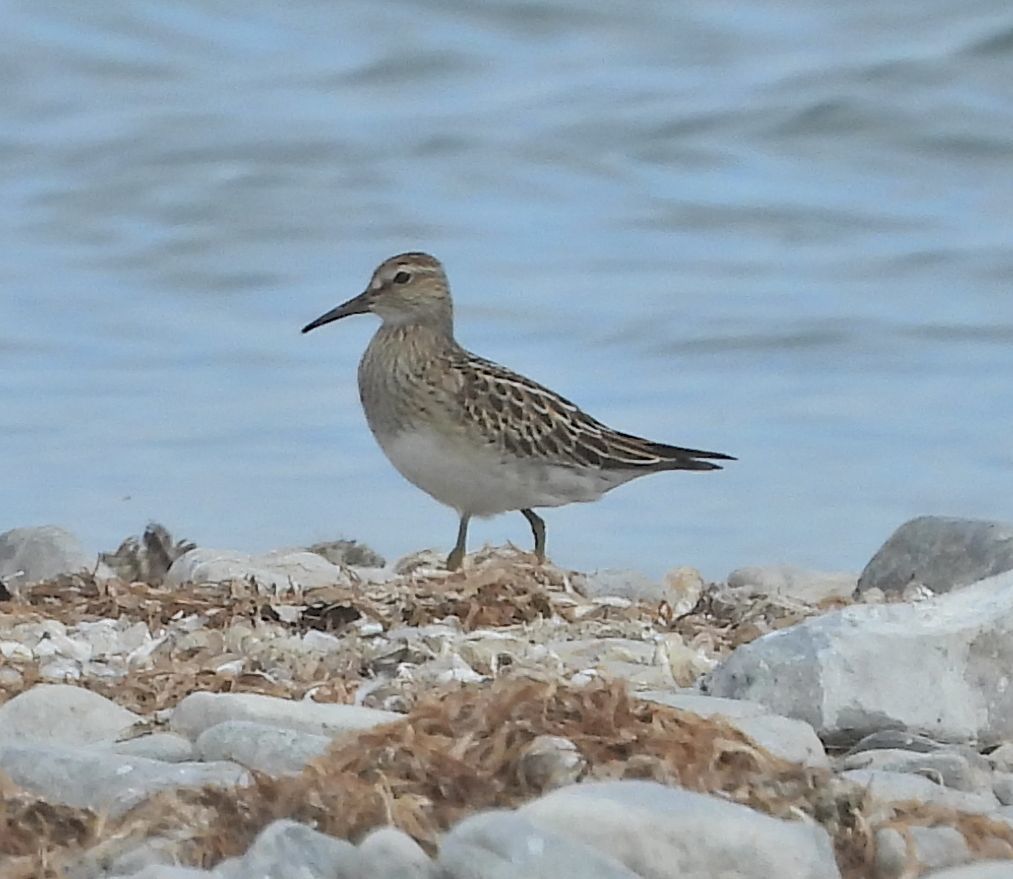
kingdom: Animalia
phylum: Chordata
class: Aves
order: Charadriiformes
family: Scolopacidae
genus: Calidris
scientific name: Calidris melanotos
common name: Pectoral sandpiper
